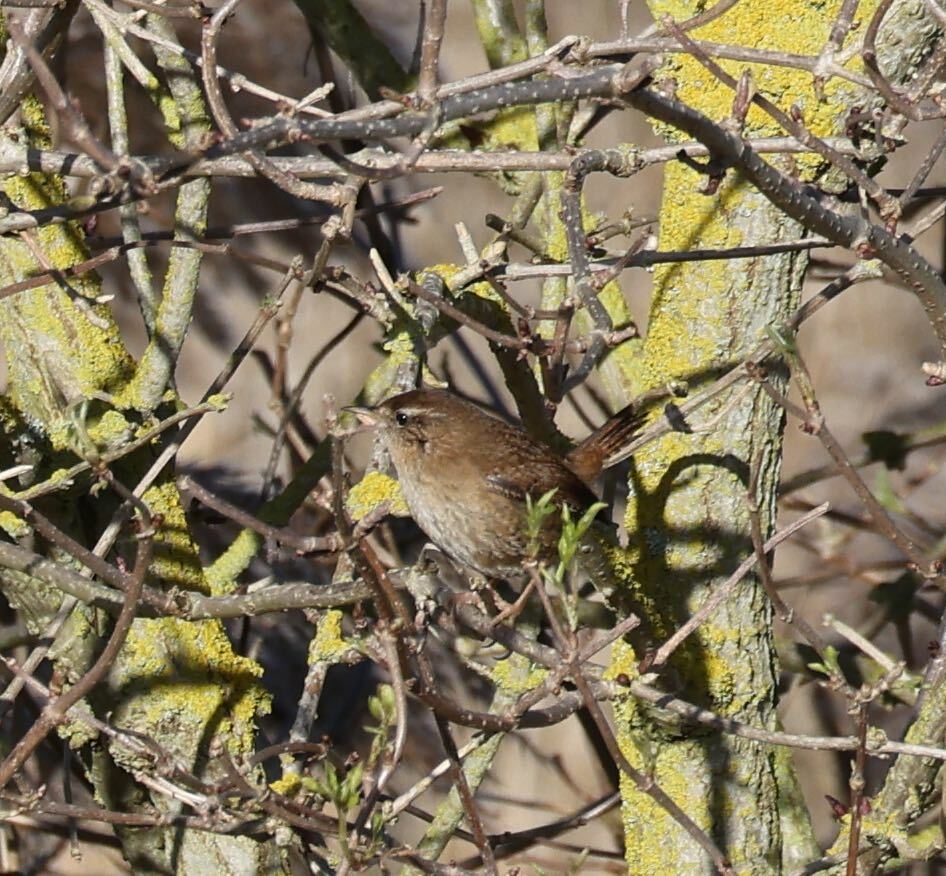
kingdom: Animalia
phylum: Chordata
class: Aves
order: Passeriformes
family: Troglodytidae
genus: Troglodytes
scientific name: Troglodytes troglodytes
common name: Eurasian wren
